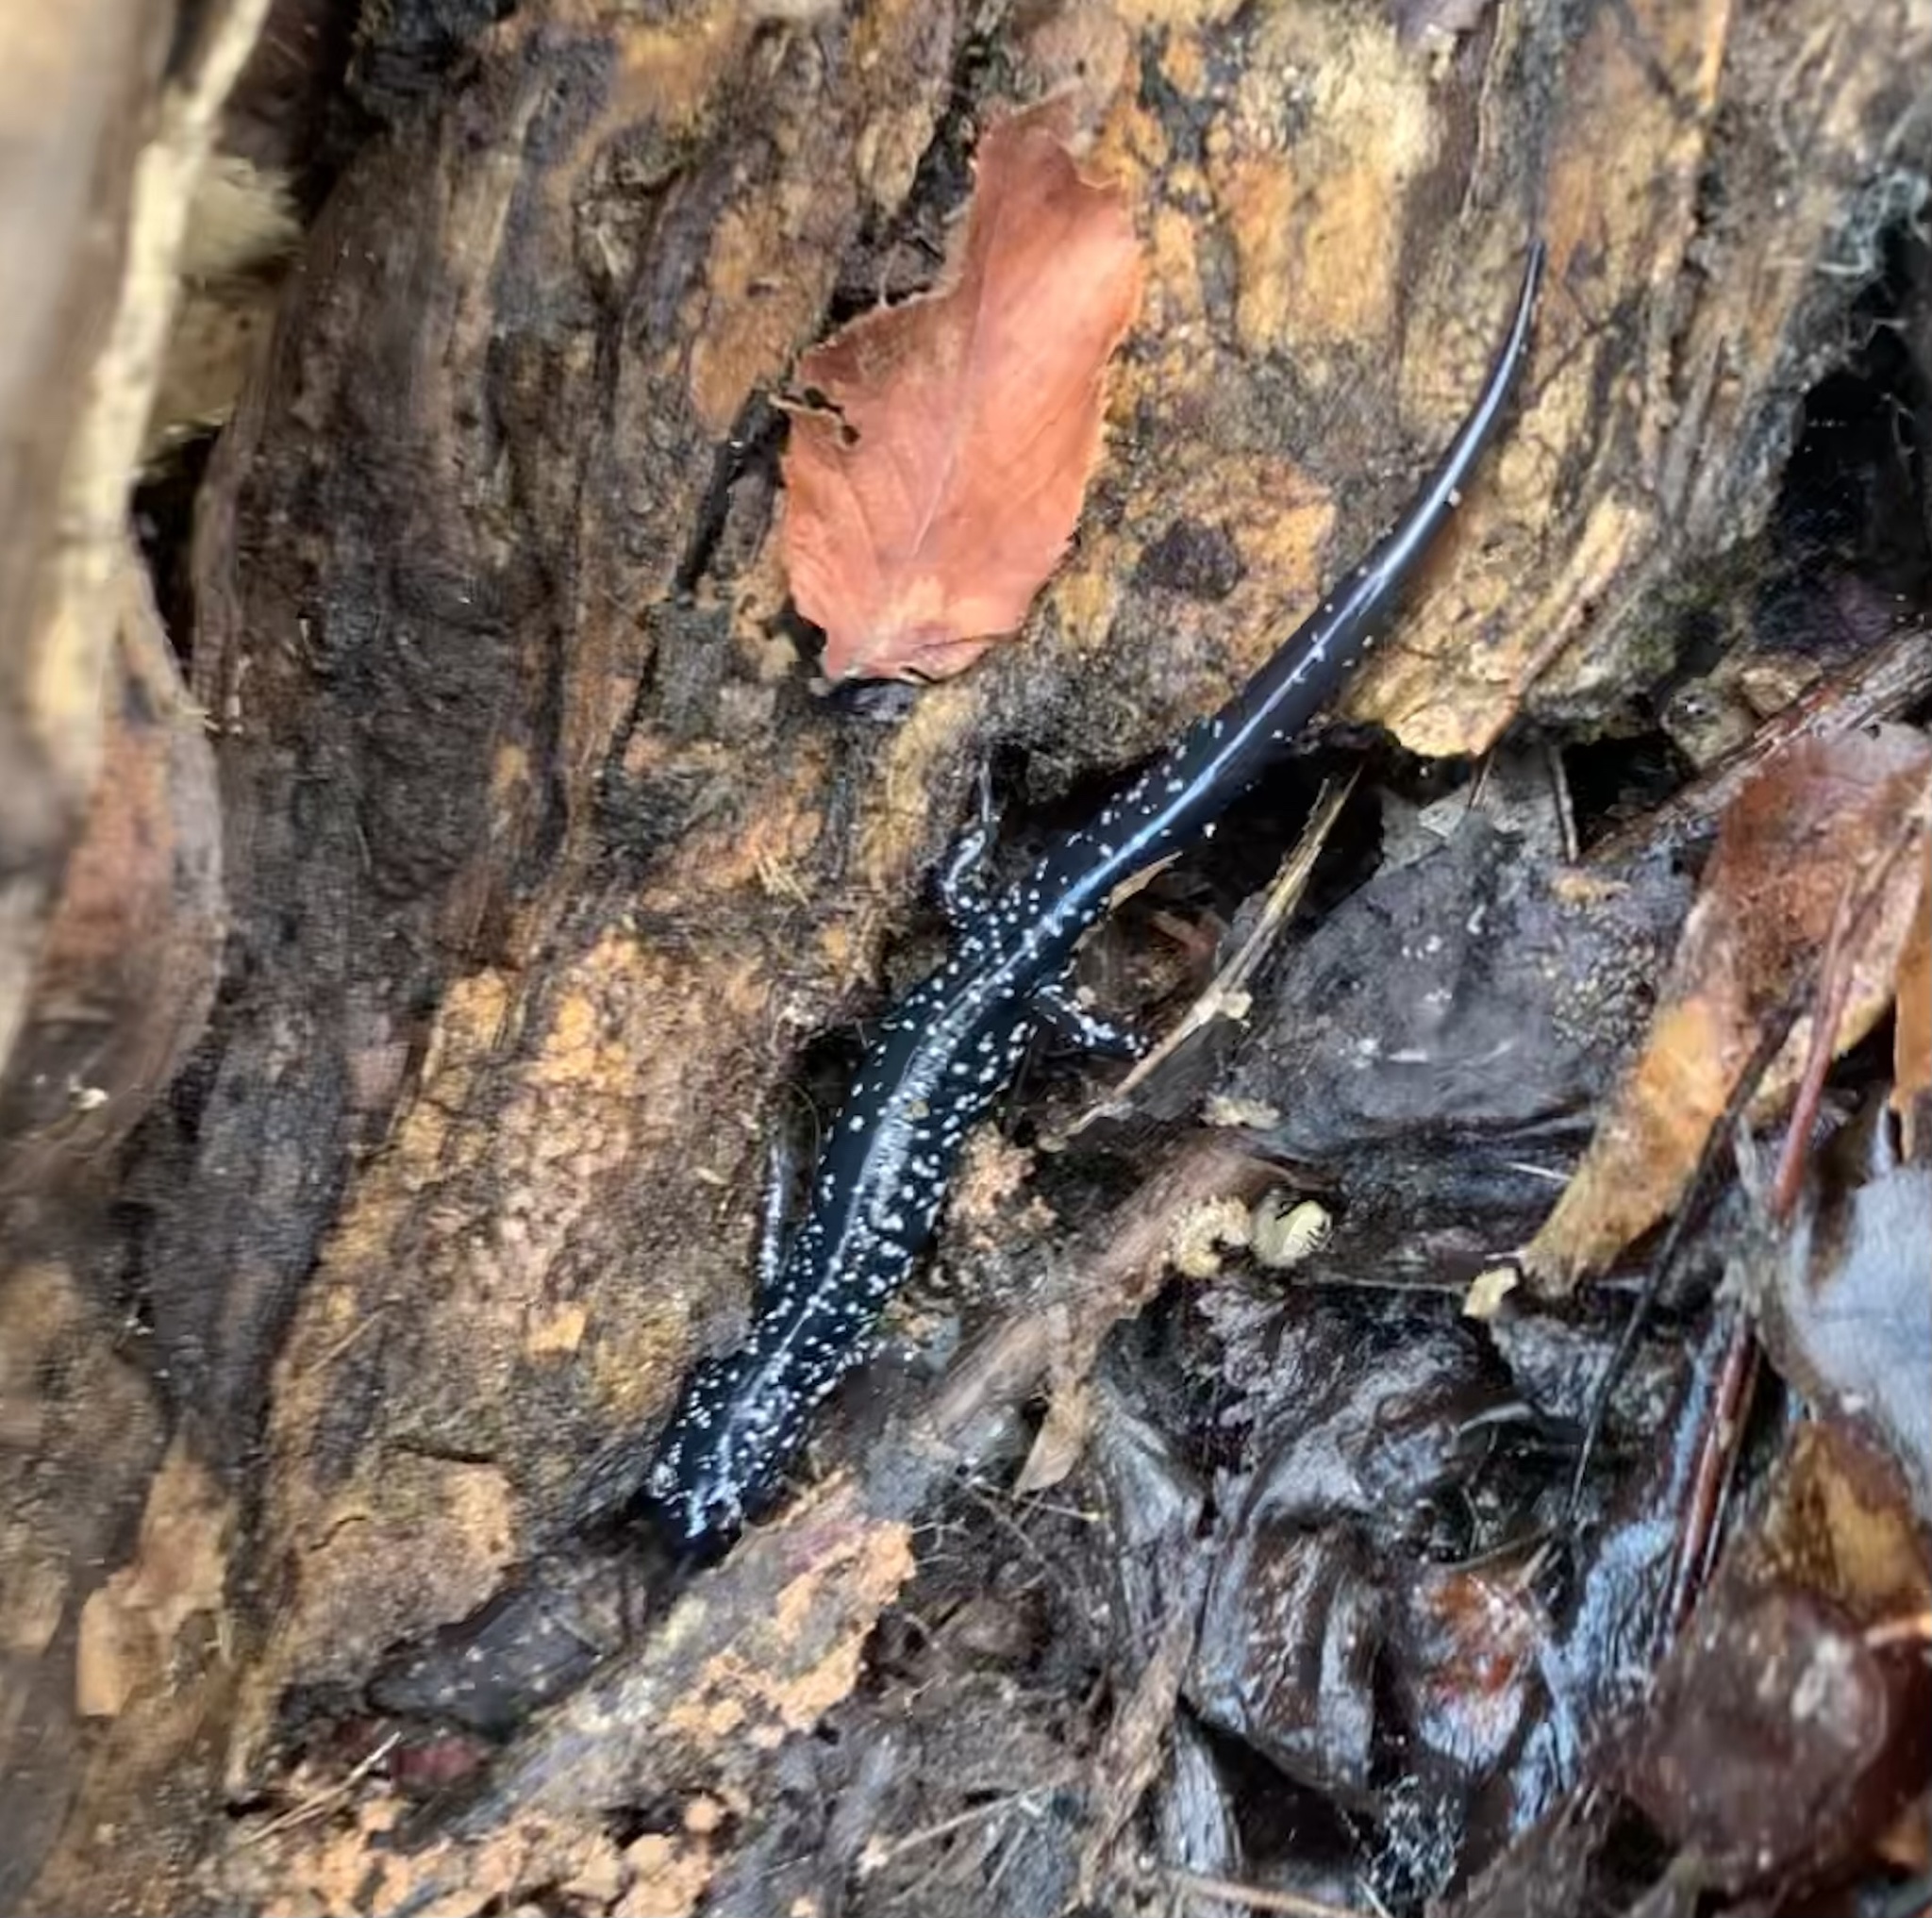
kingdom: Animalia
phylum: Chordata
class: Amphibia
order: Caudata
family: Plethodontidae
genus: Plethodon
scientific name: Plethodon cylindraceus
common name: White-spotted slimy salamander
